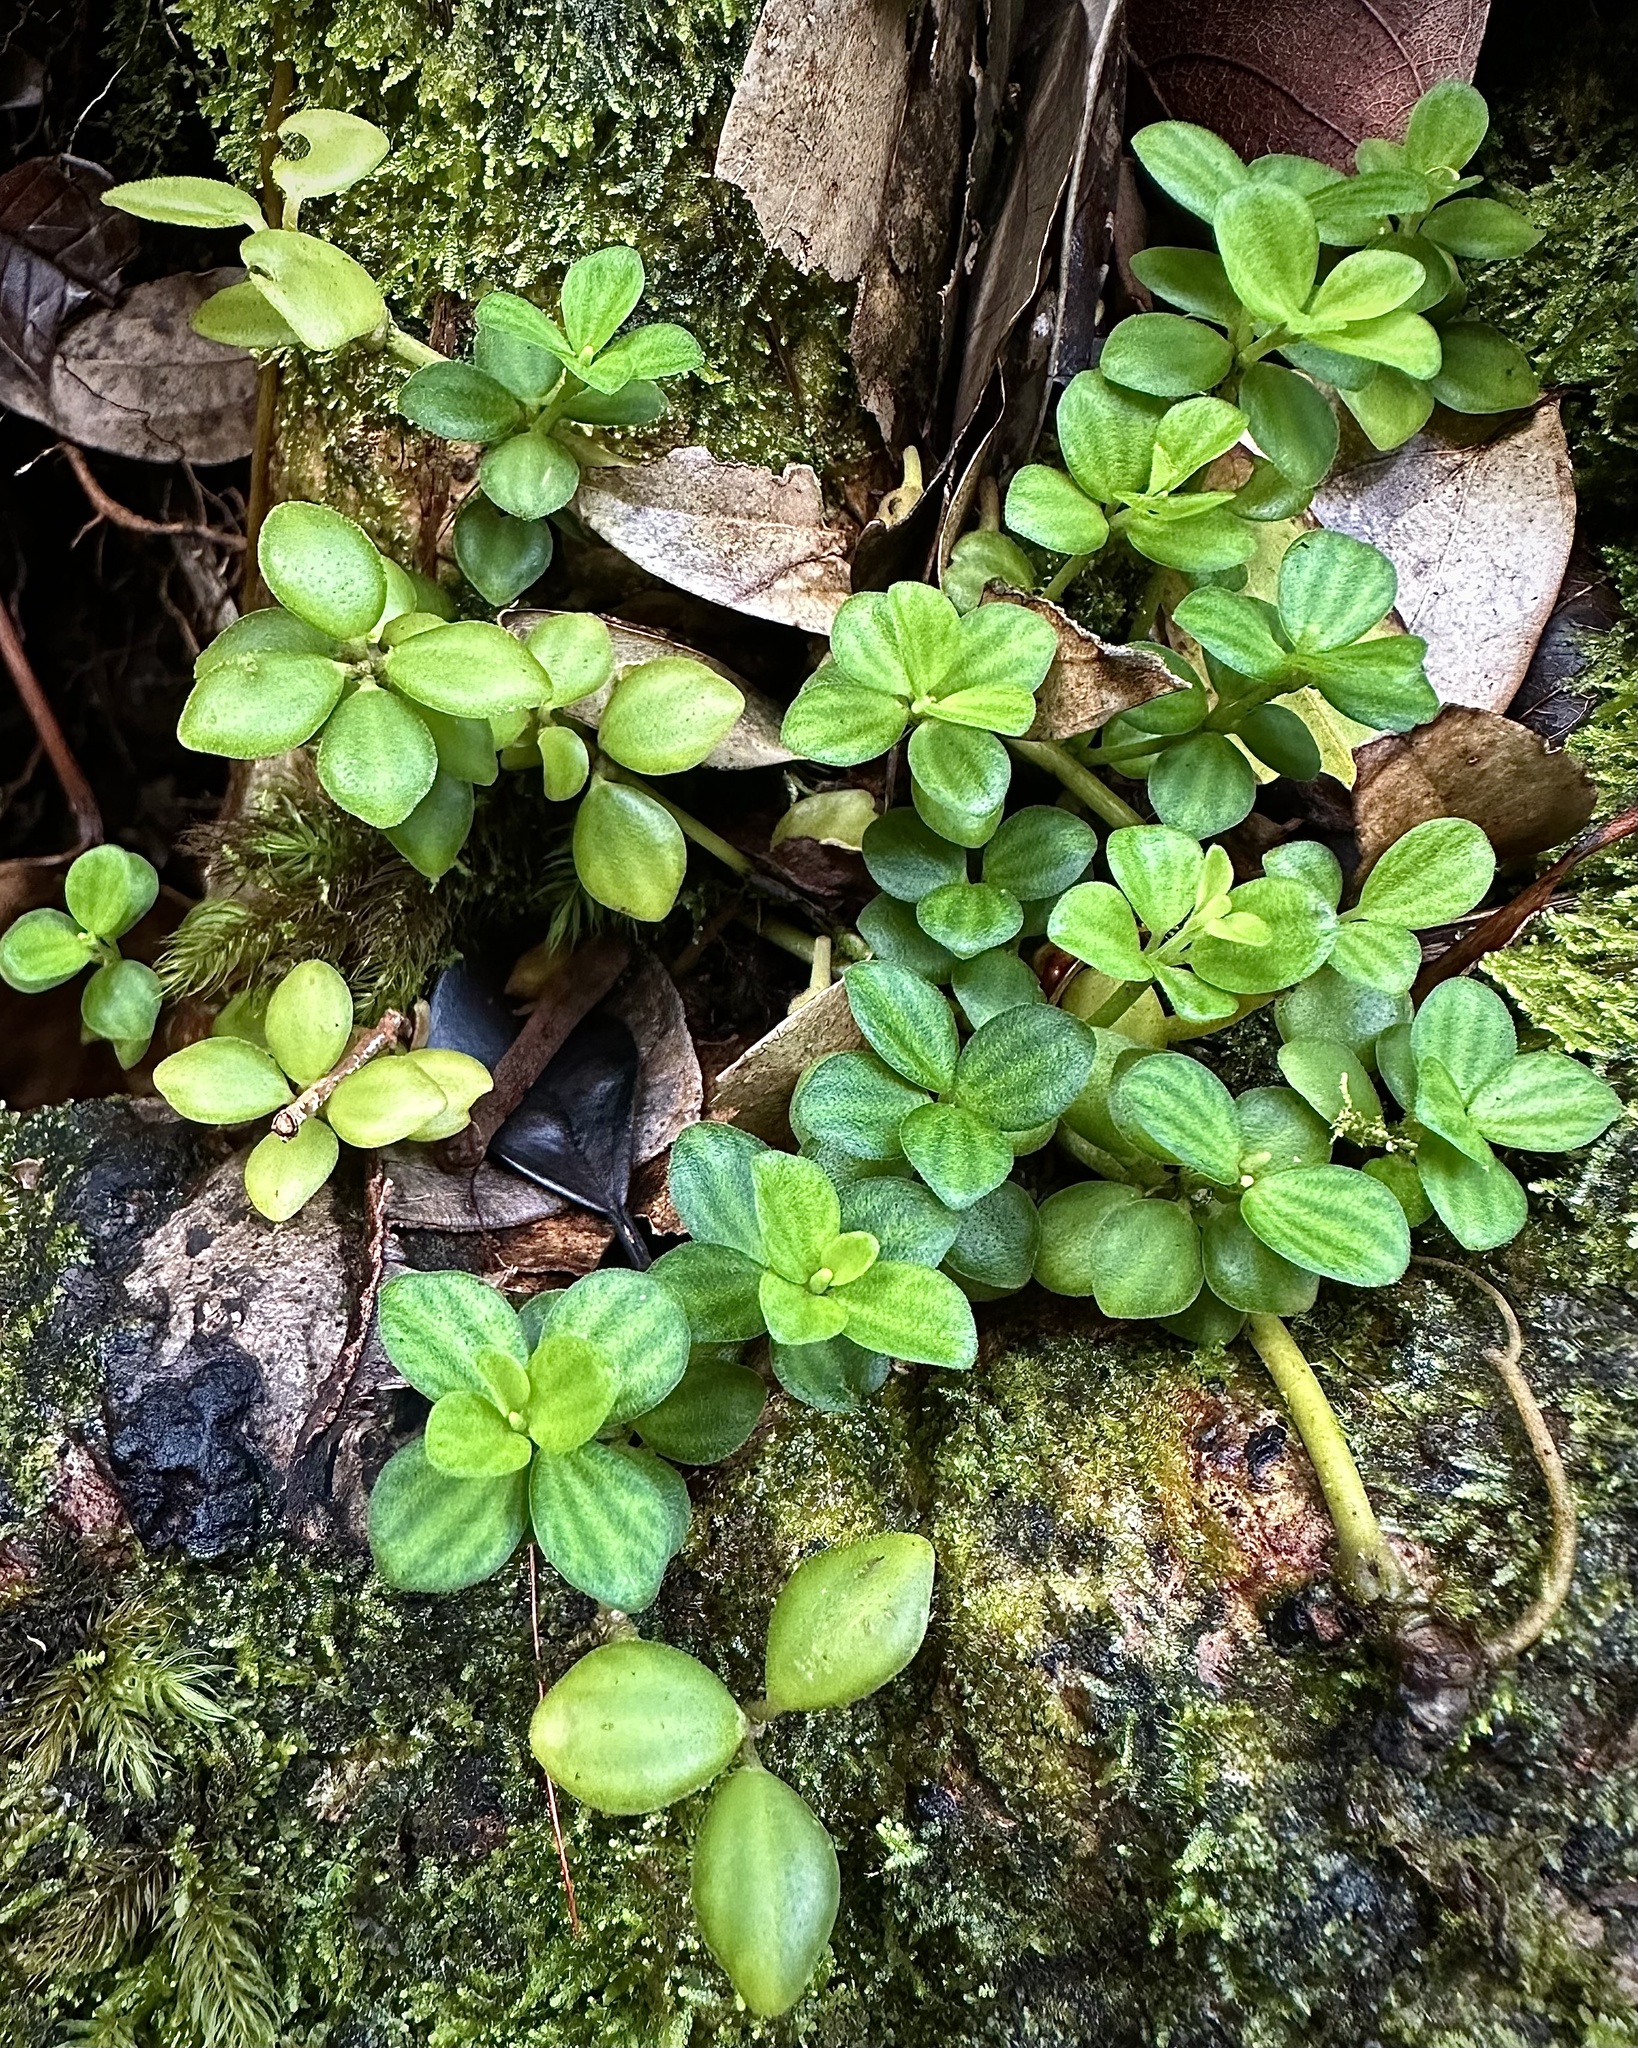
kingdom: Plantae
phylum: Tracheophyta
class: Magnoliopsida
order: Piperales
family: Piperaceae
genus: Peperomia
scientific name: Peperomia tetraphylla
